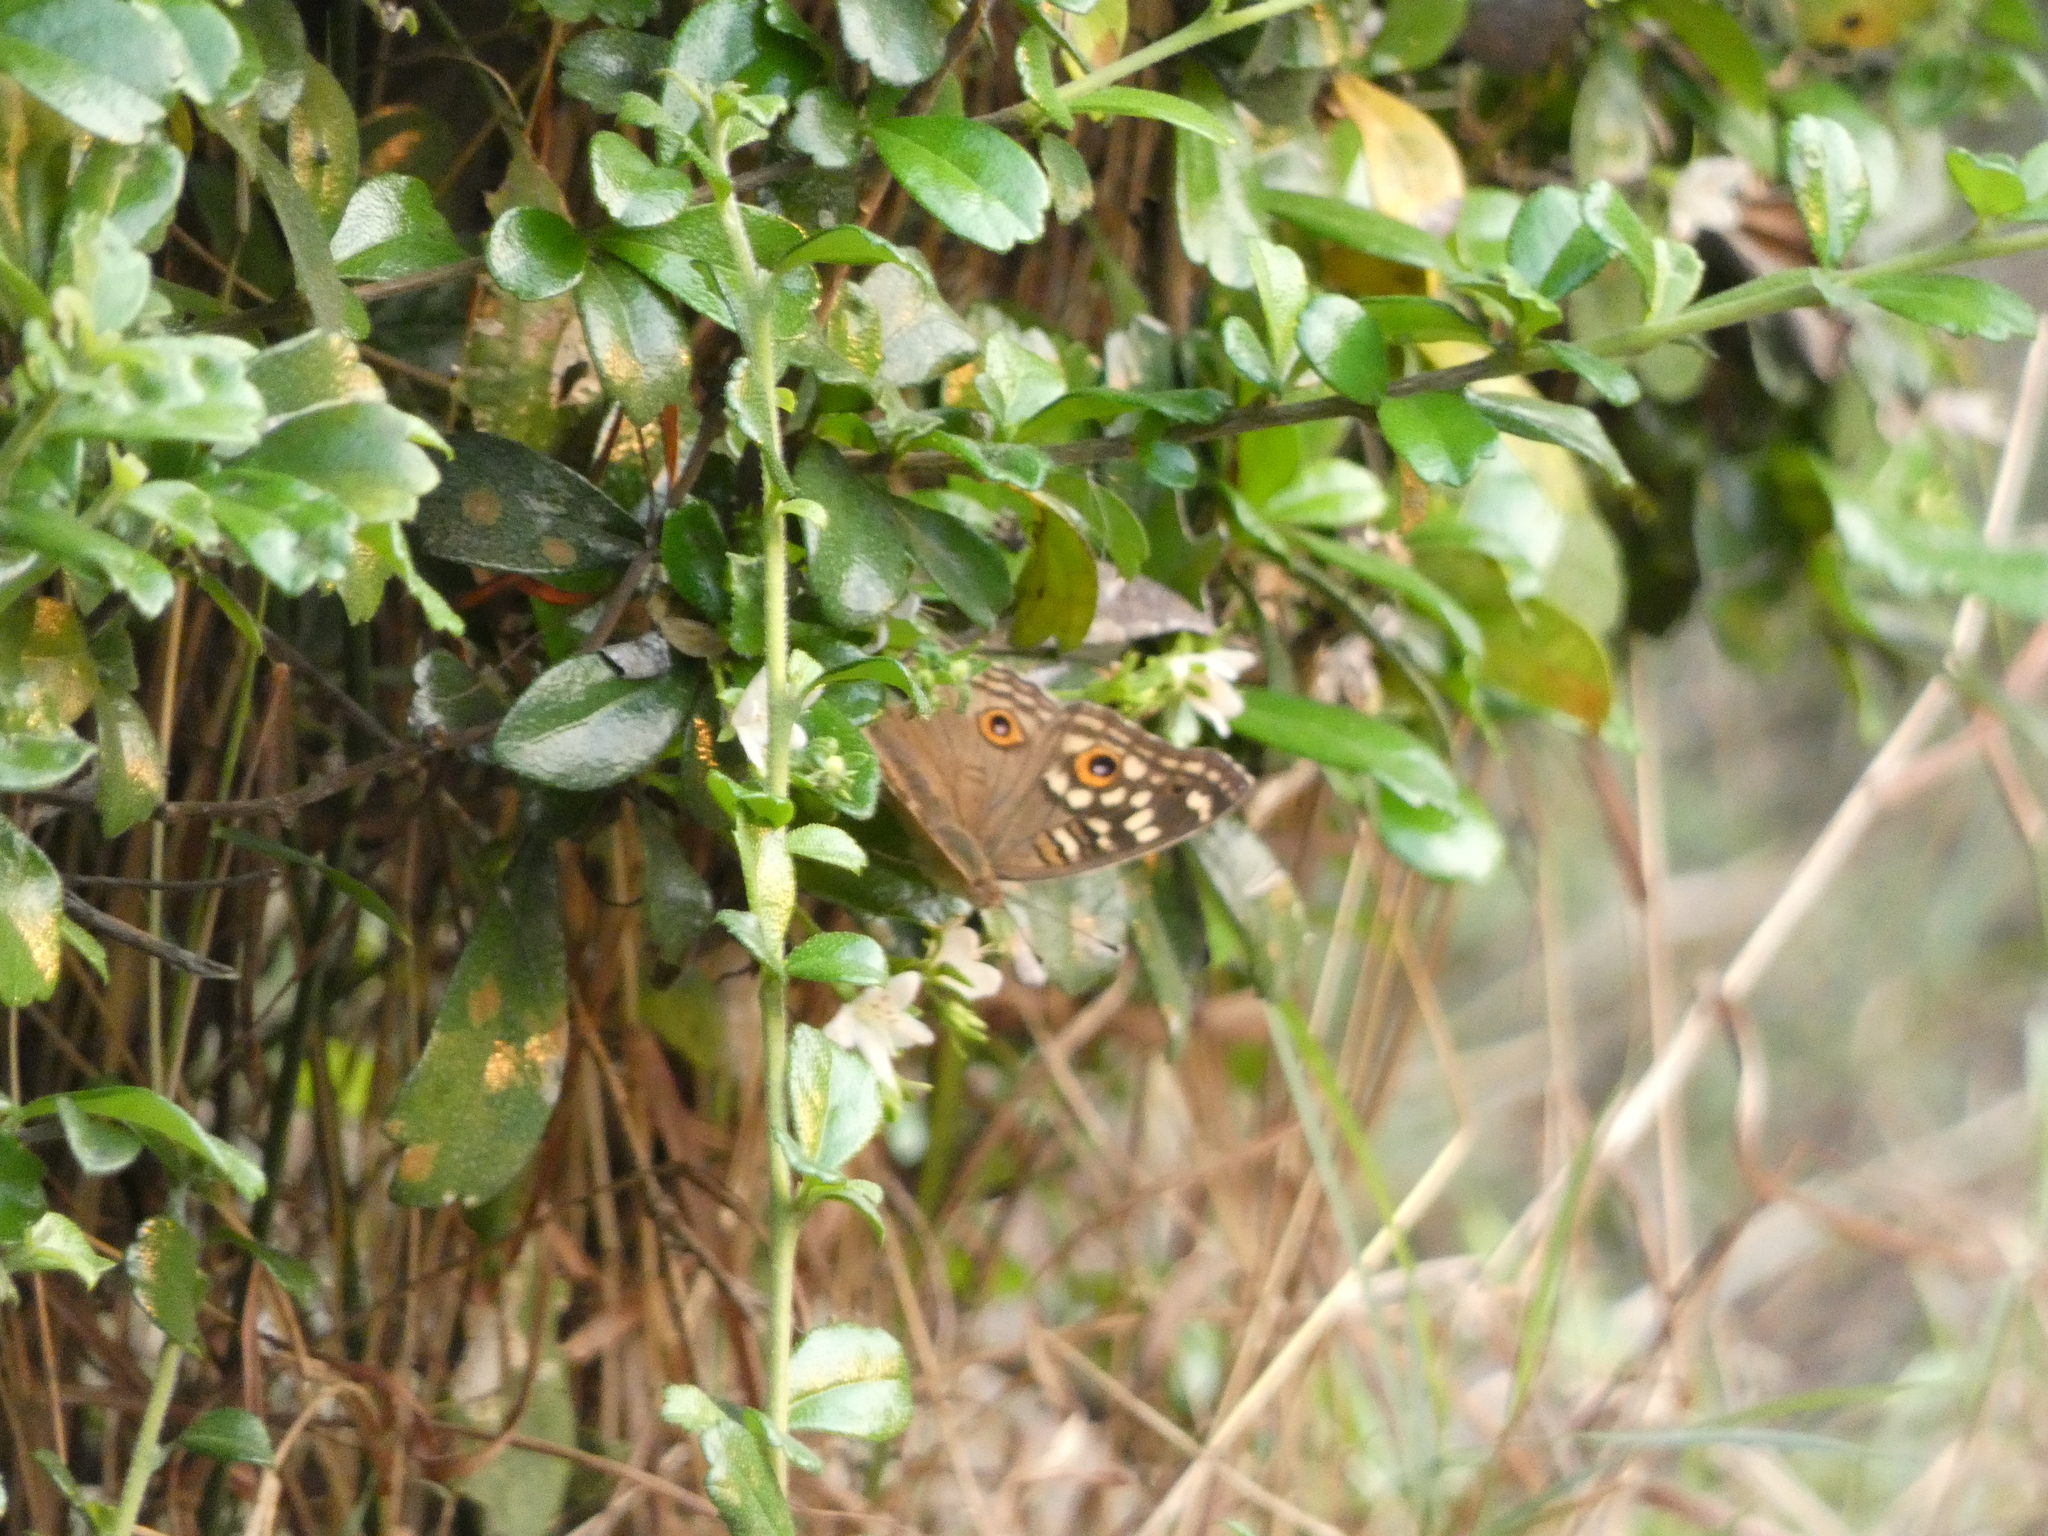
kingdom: Animalia
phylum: Arthropoda
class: Insecta
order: Lepidoptera
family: Nymphalidae
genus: Junonia
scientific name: Junonia lemonias
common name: Lemon pansy
